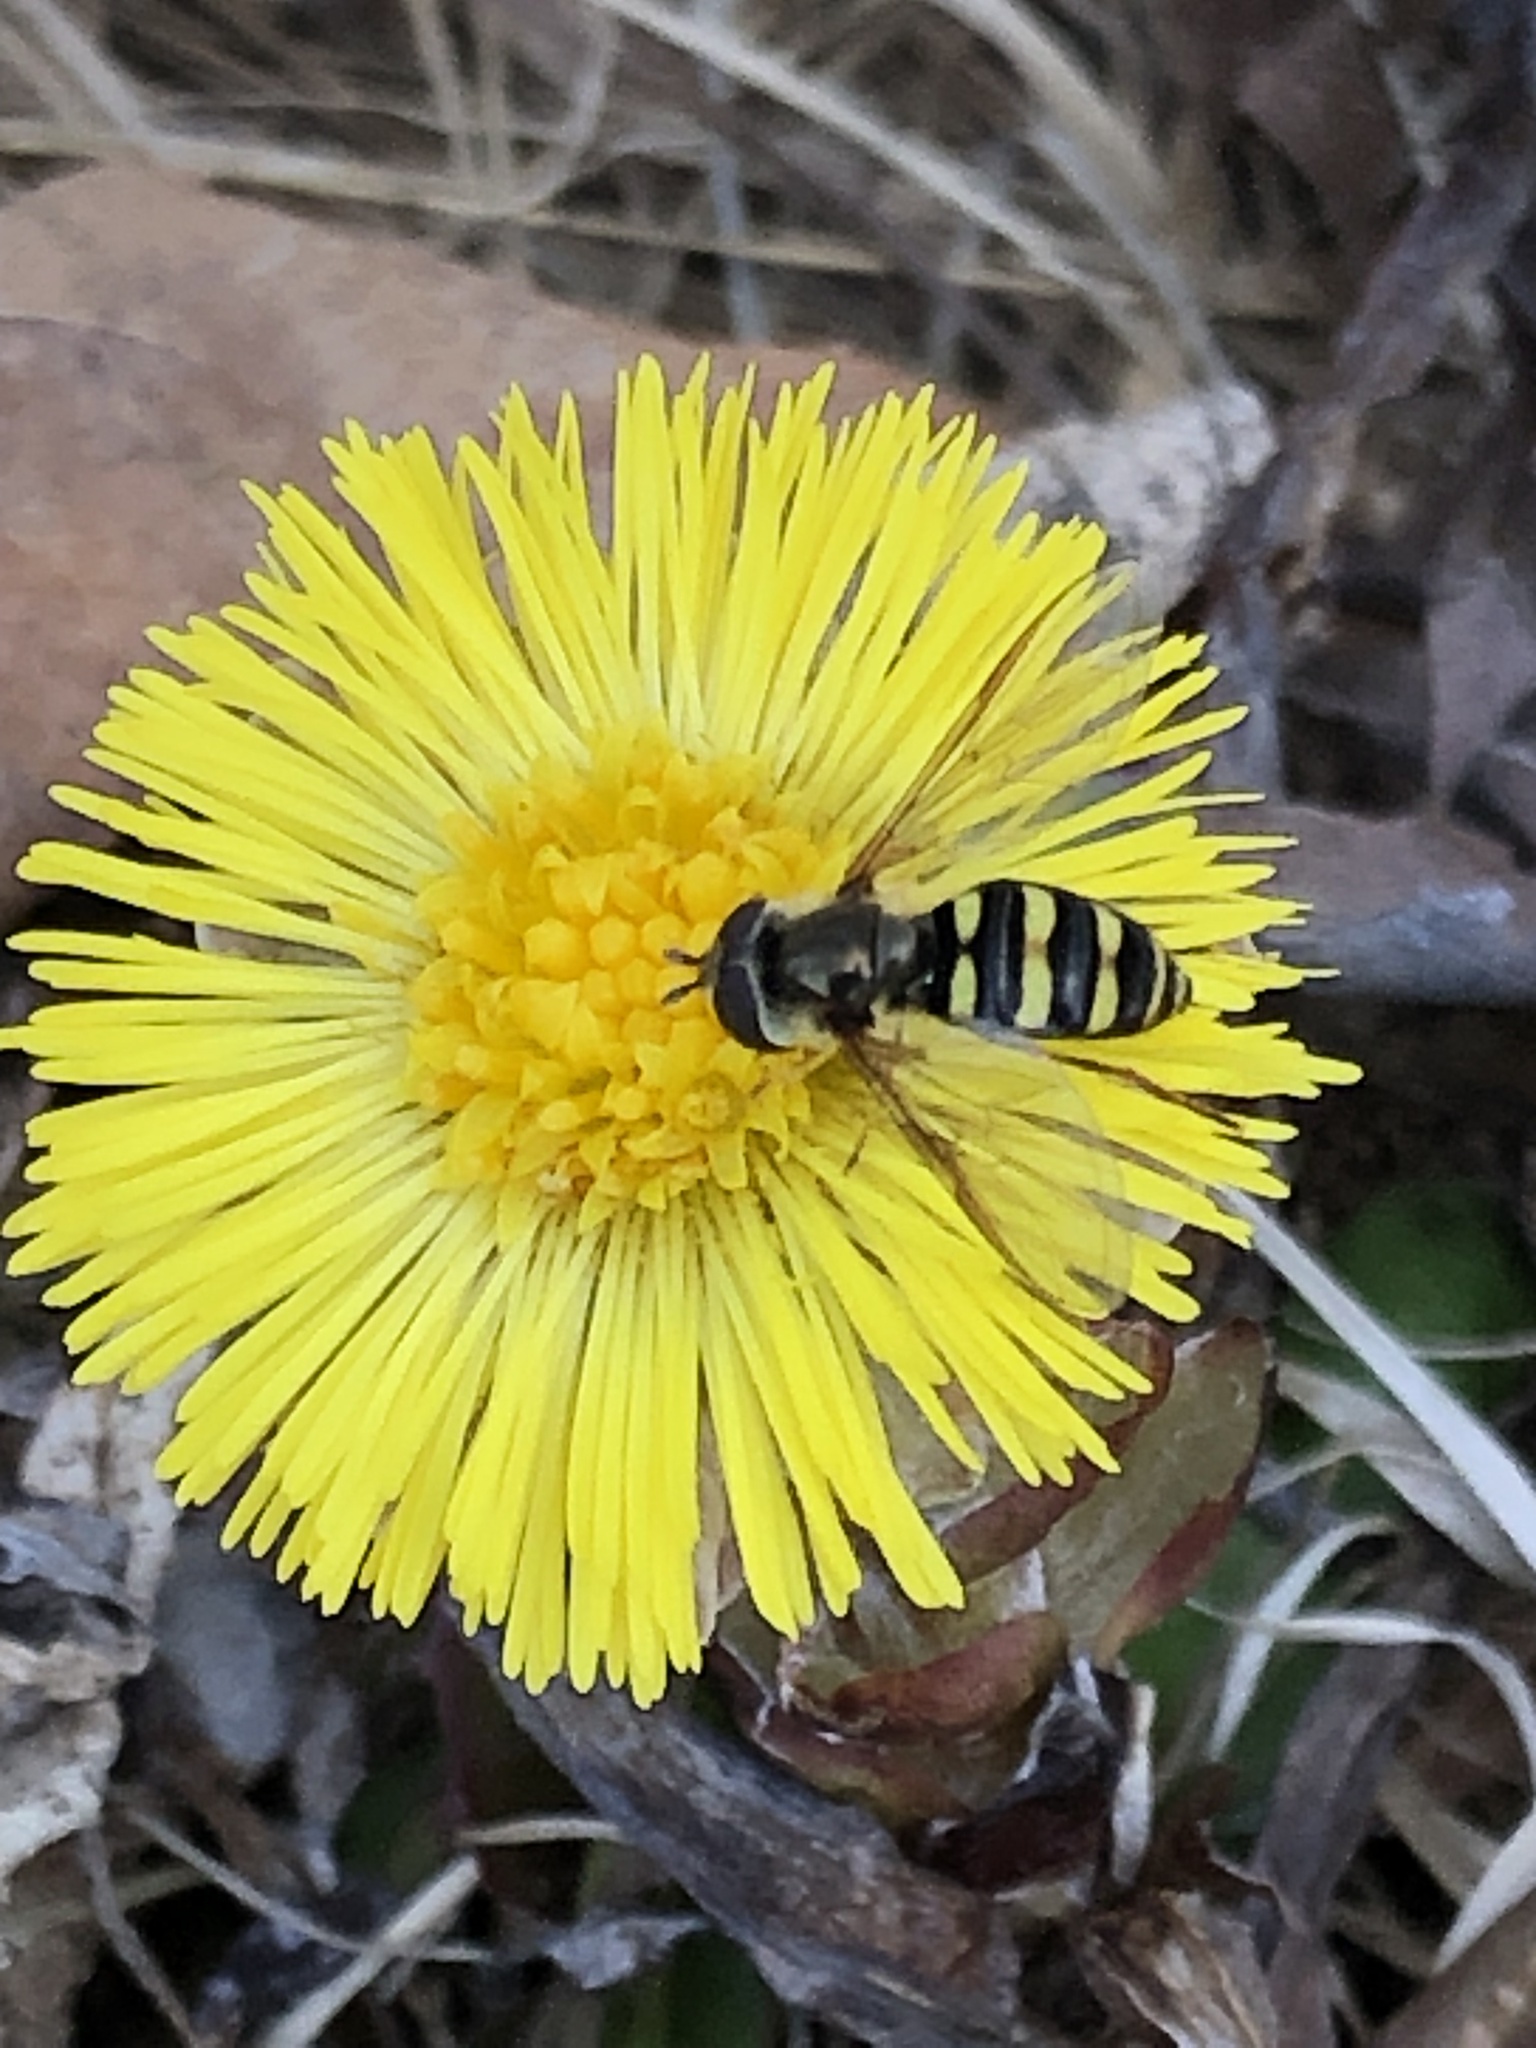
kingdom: Animalia
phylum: Arthropoda
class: Insecta
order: Diptera
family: Syrphidae
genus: Eupeodes
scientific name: Eupeodes
